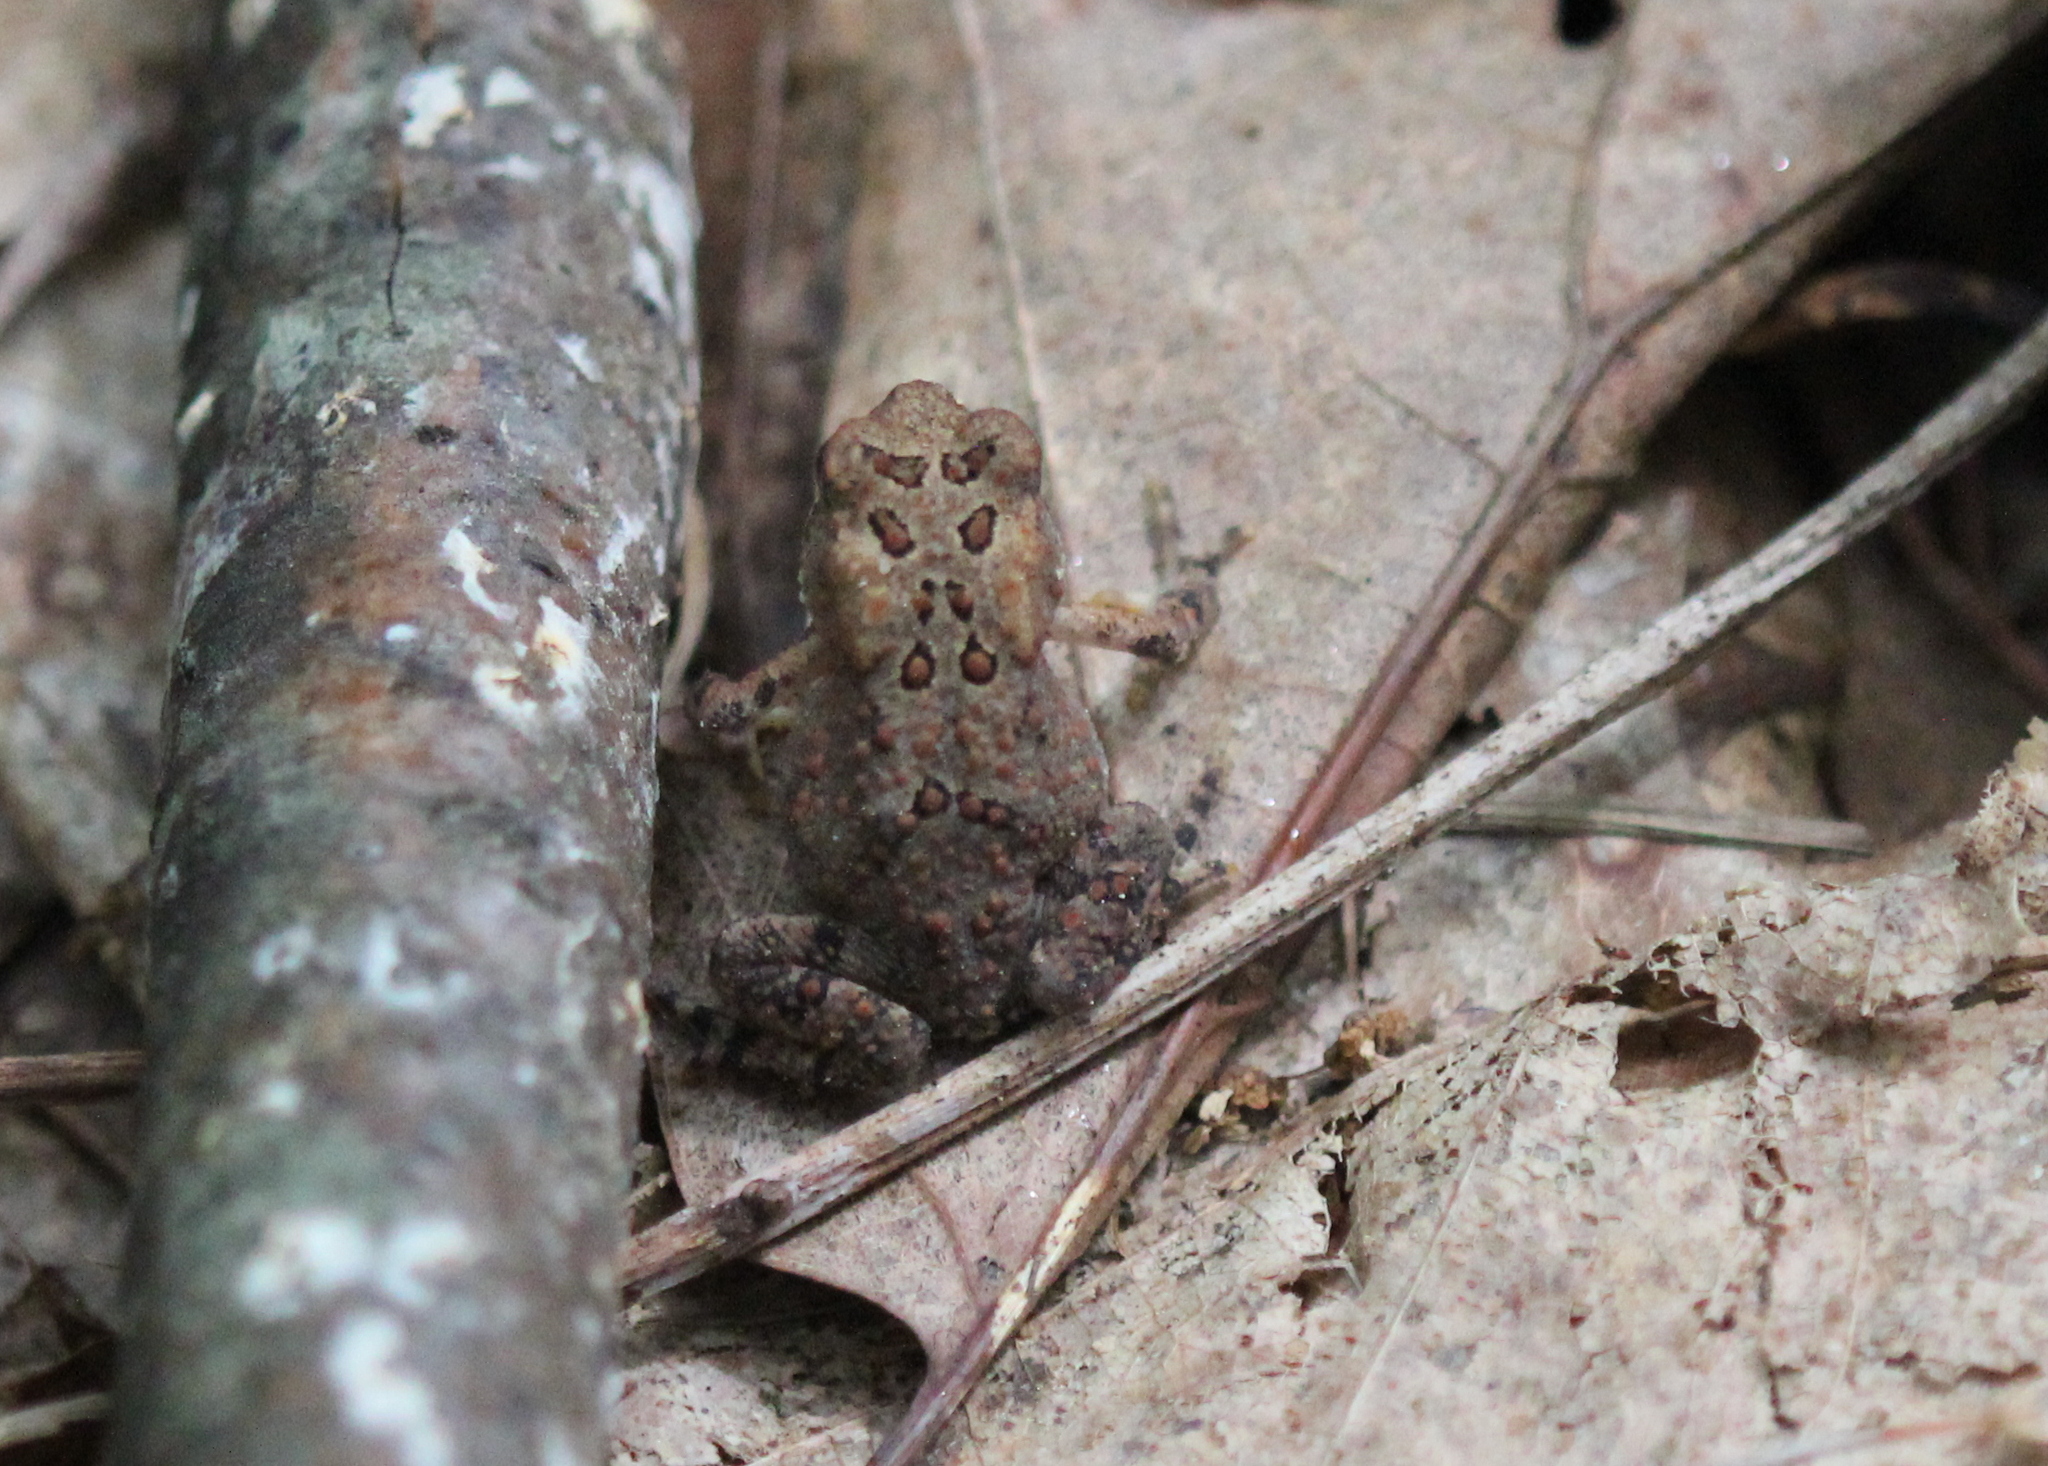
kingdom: Animalia
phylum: Chordata
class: Amphibia
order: Anura
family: Bufonidae
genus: Anaxyrus
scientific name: Anaxyrus americanus
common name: American toad
